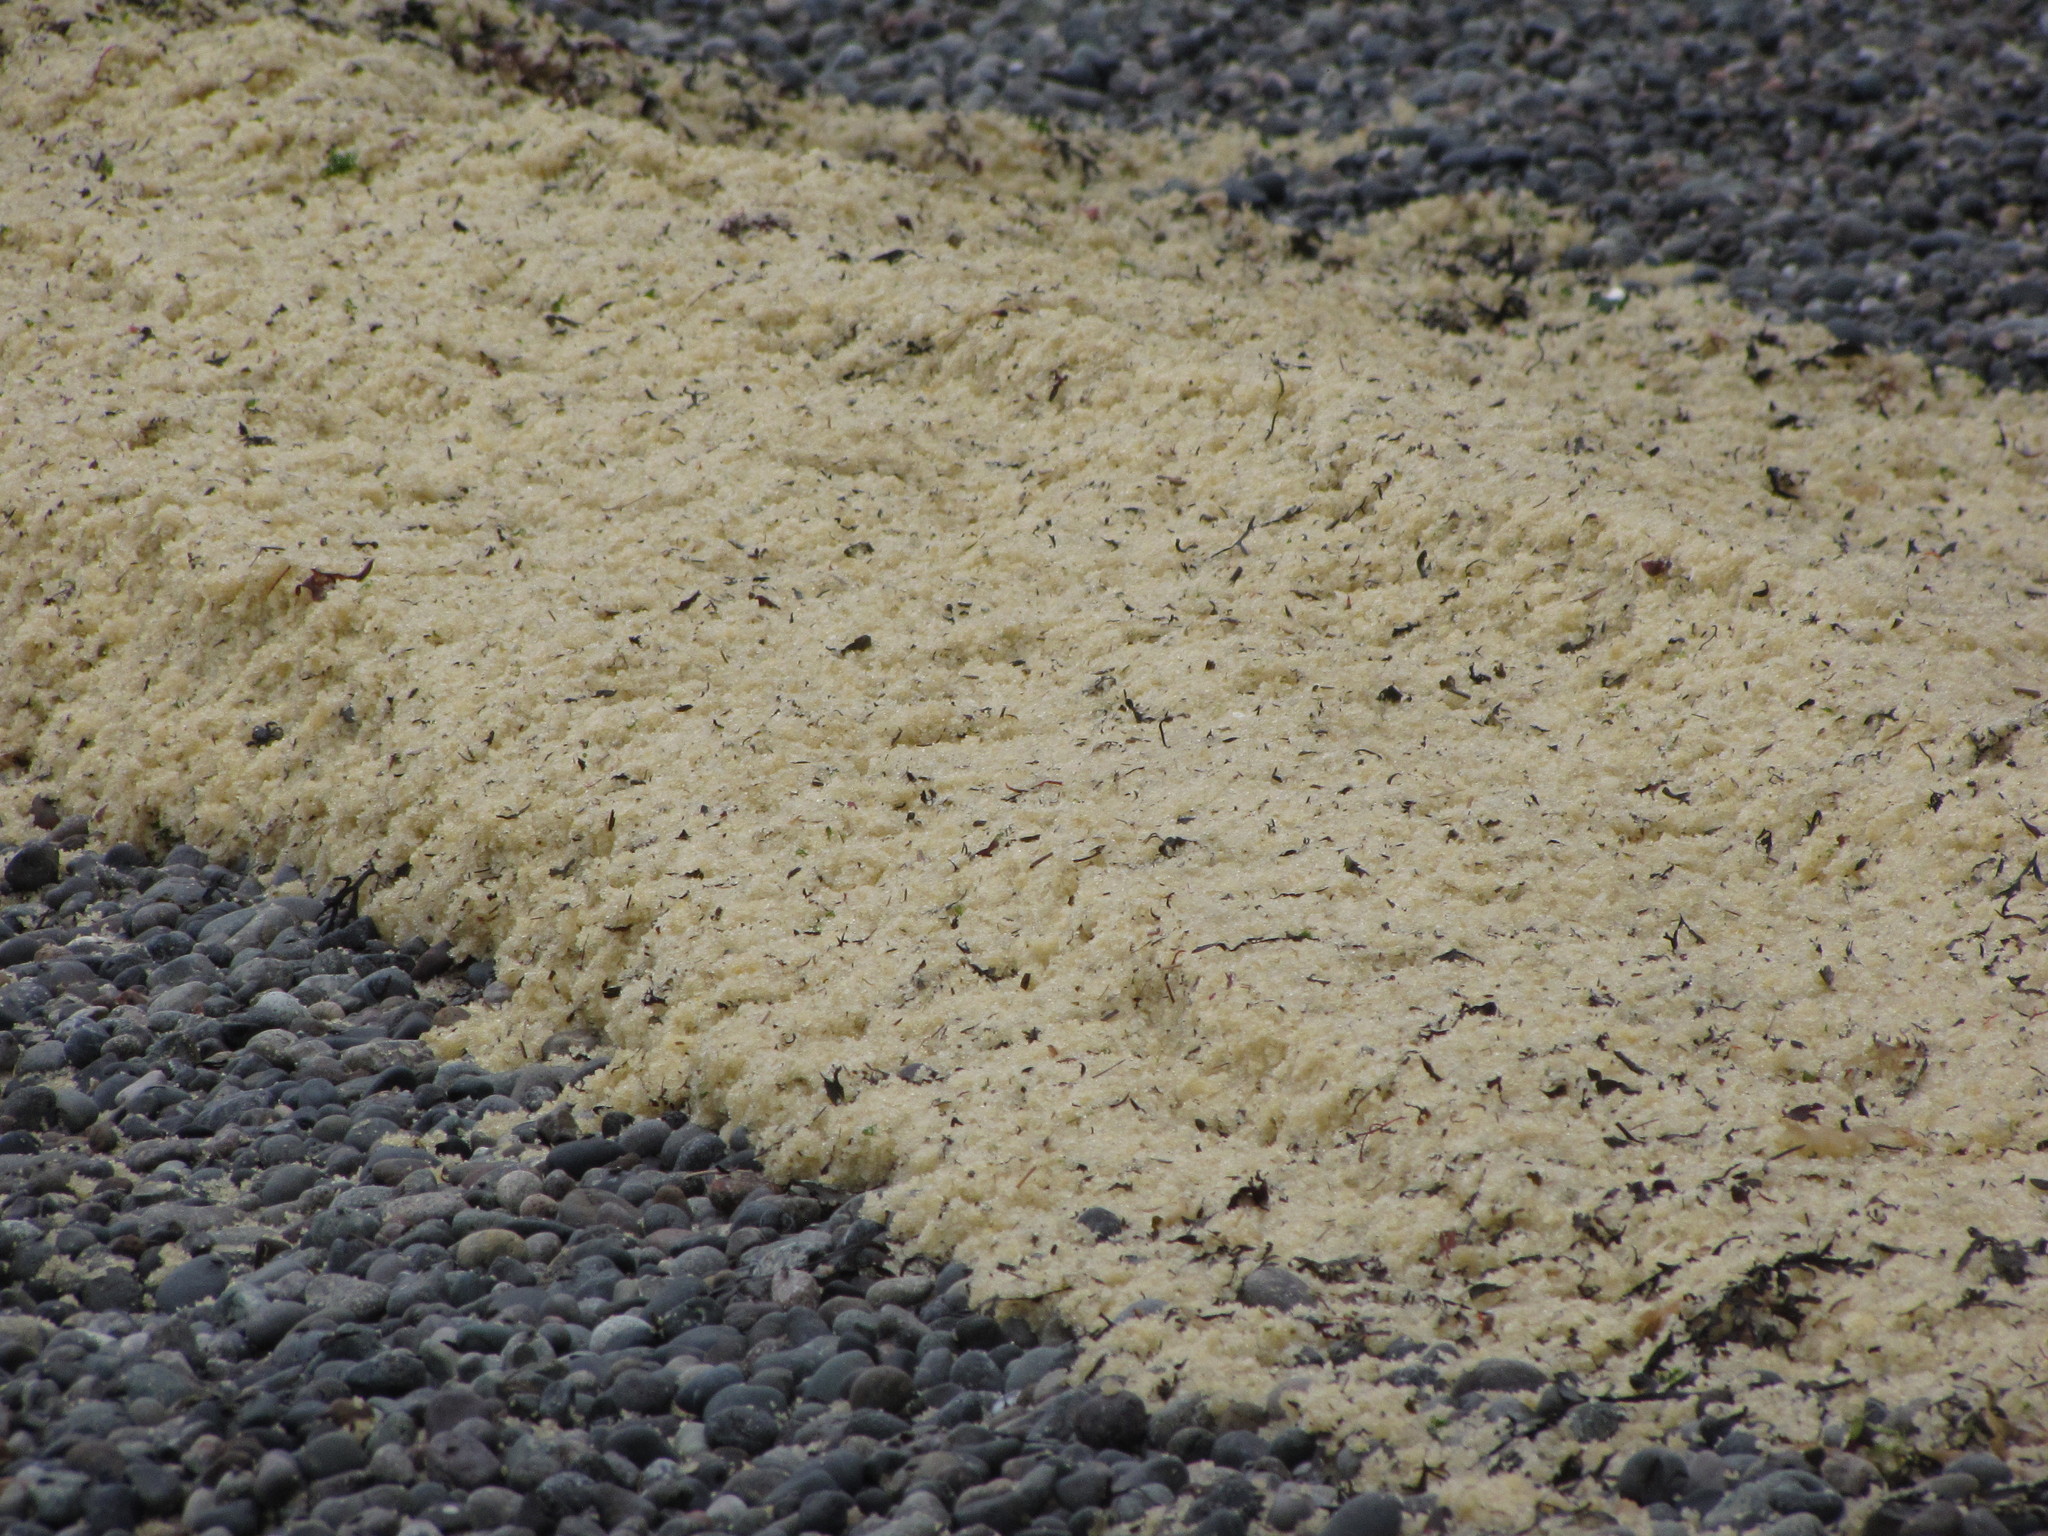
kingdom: Animalia
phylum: Chordata
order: Clupeiformes
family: Clupeidae
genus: Clupea
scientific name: Clupea pallasii
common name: Pacific herring
